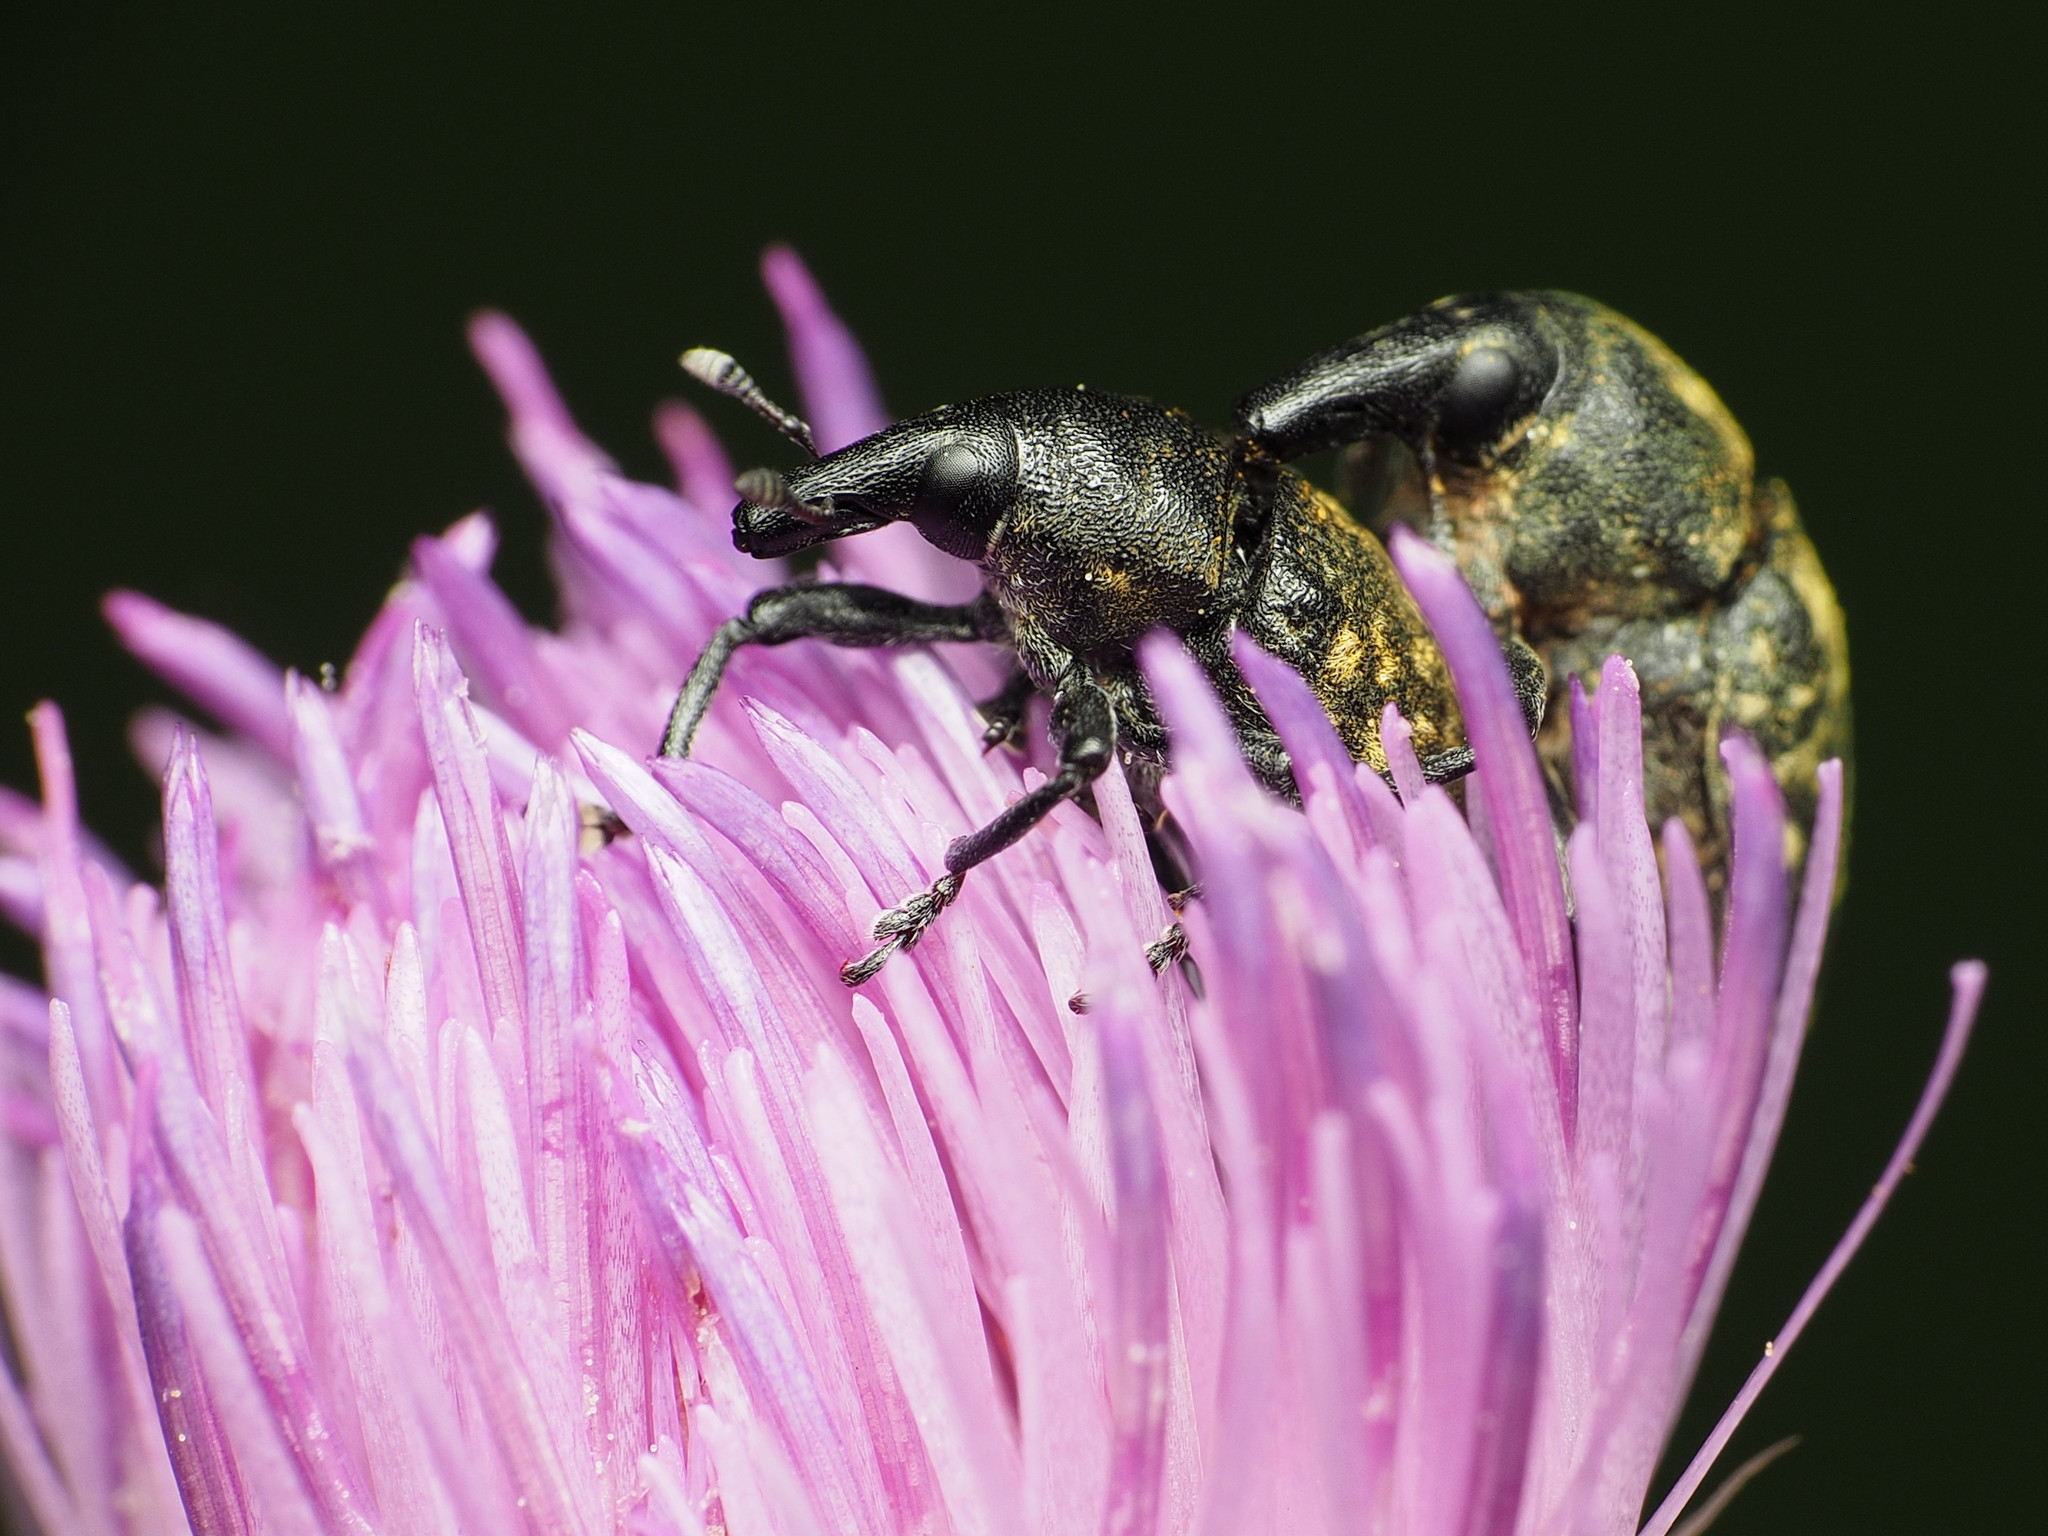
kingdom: Animalia
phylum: Arthropoda
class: Insecta
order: Coleoptera
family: Curculionidae
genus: Larinus
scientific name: Larinus turbinatus
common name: Weevil
